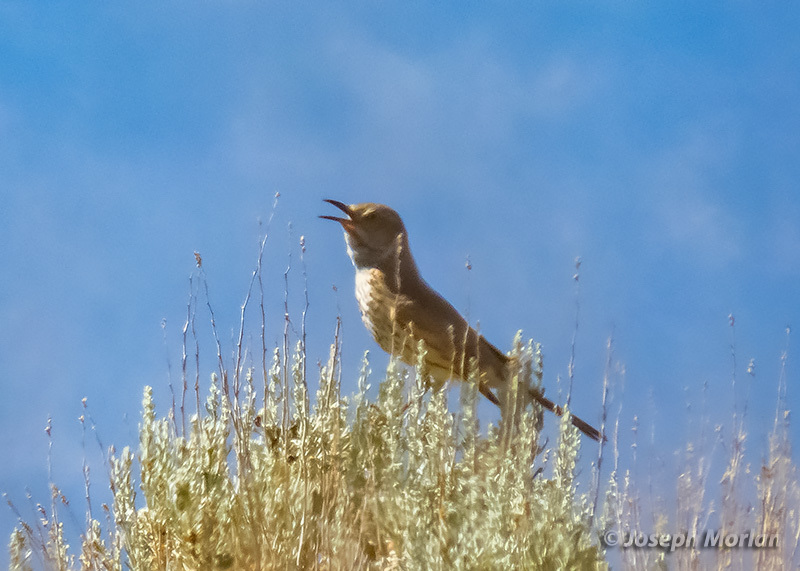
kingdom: Animalia
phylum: Chordata
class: Aves
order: Passeriformes
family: Mimidae
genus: Oreoscoptes
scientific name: Oreoscoptes montanus
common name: Sage thrasher
